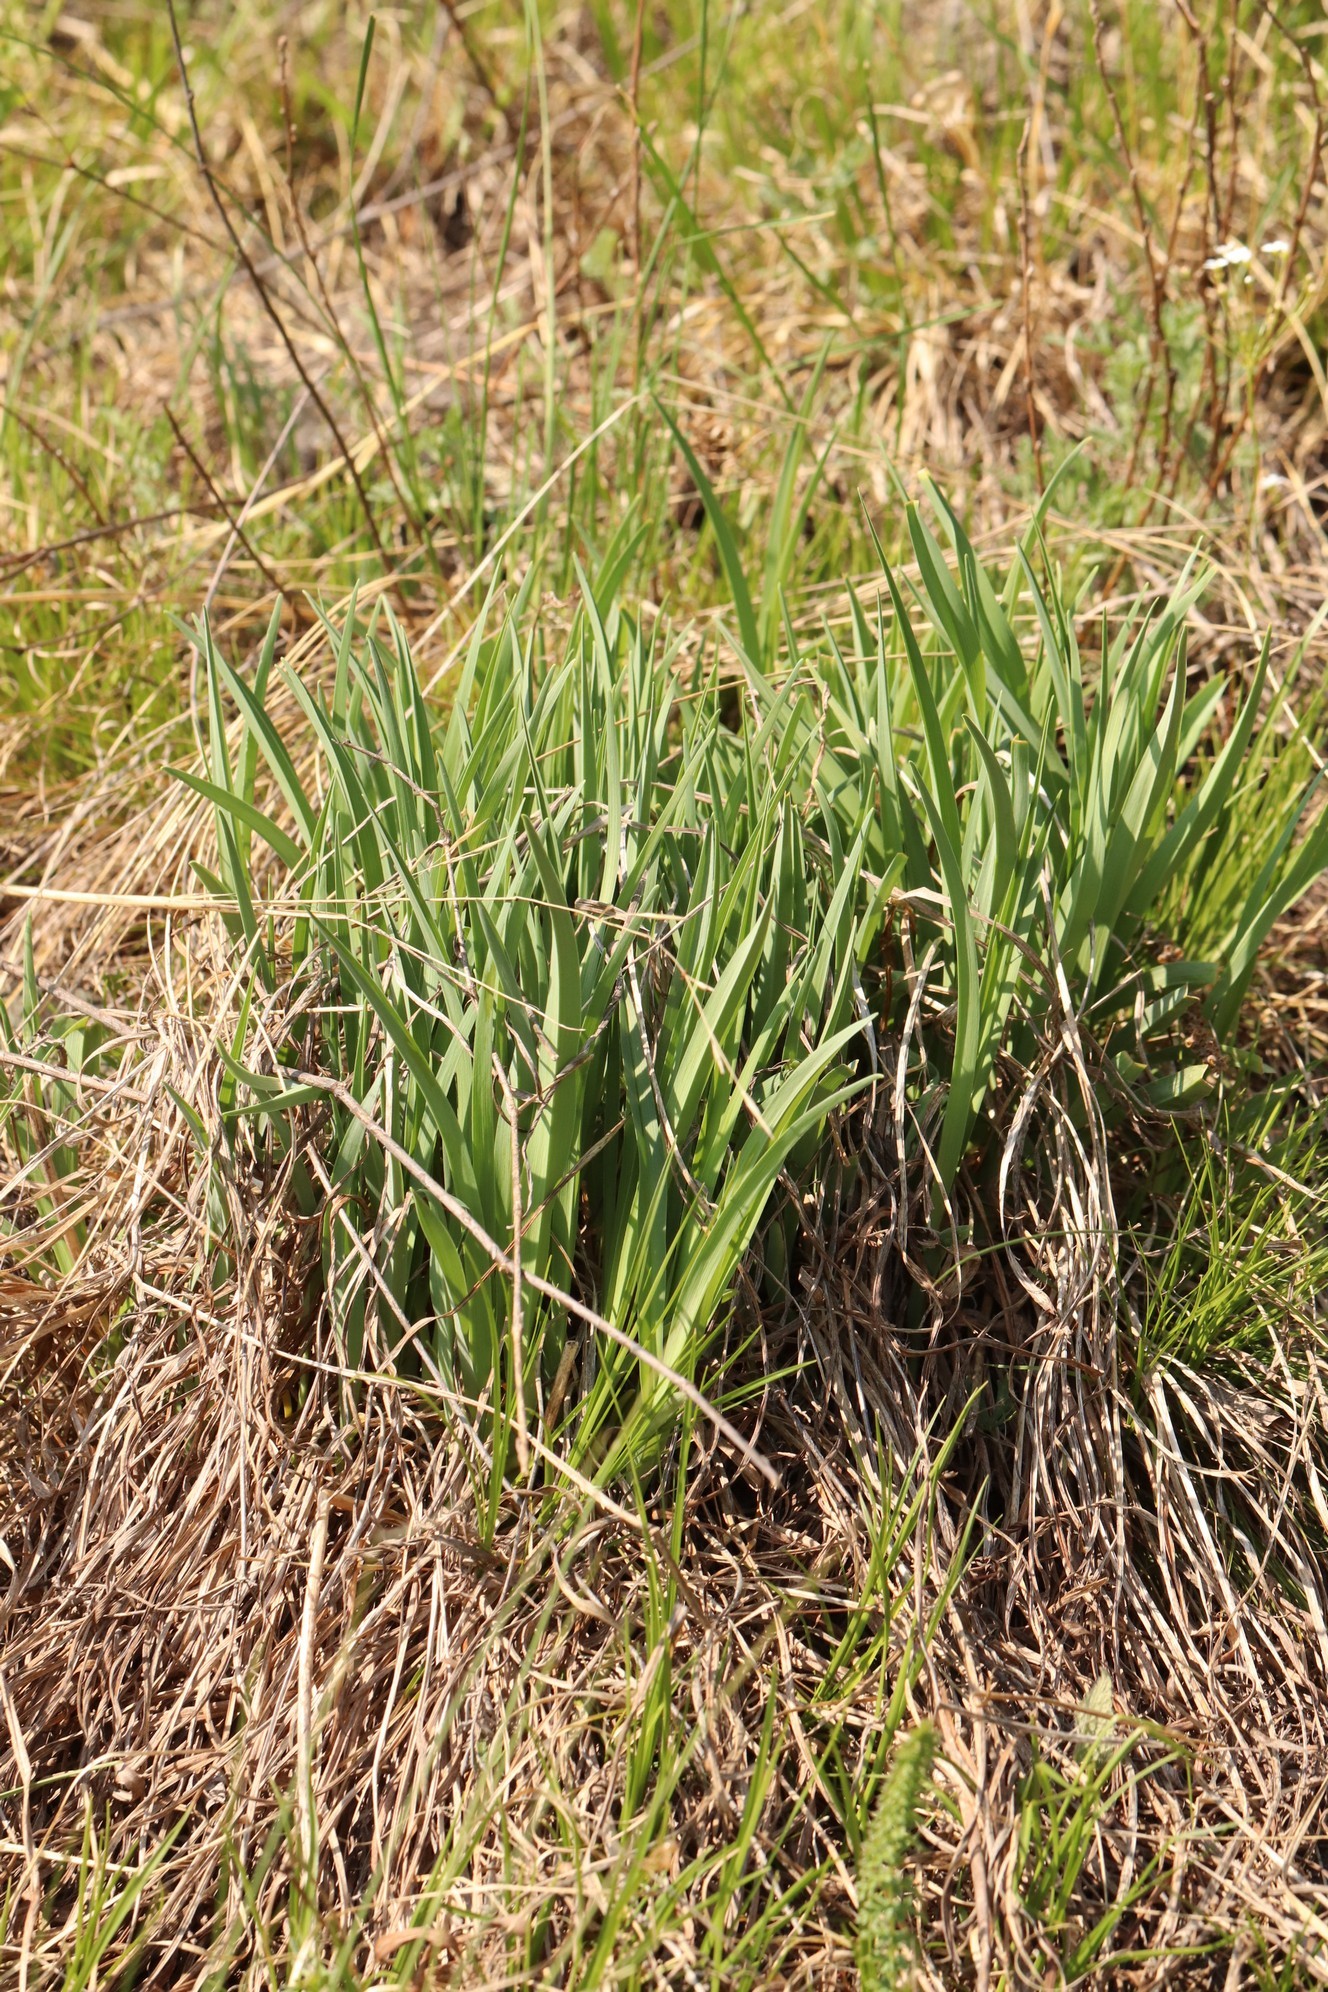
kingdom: Plantae
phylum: Tracheophyta
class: Liliopsida
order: Asparagales
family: Asphodelaceae
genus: Hemerocallis
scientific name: Hemerocallis minor
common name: Small daylily
